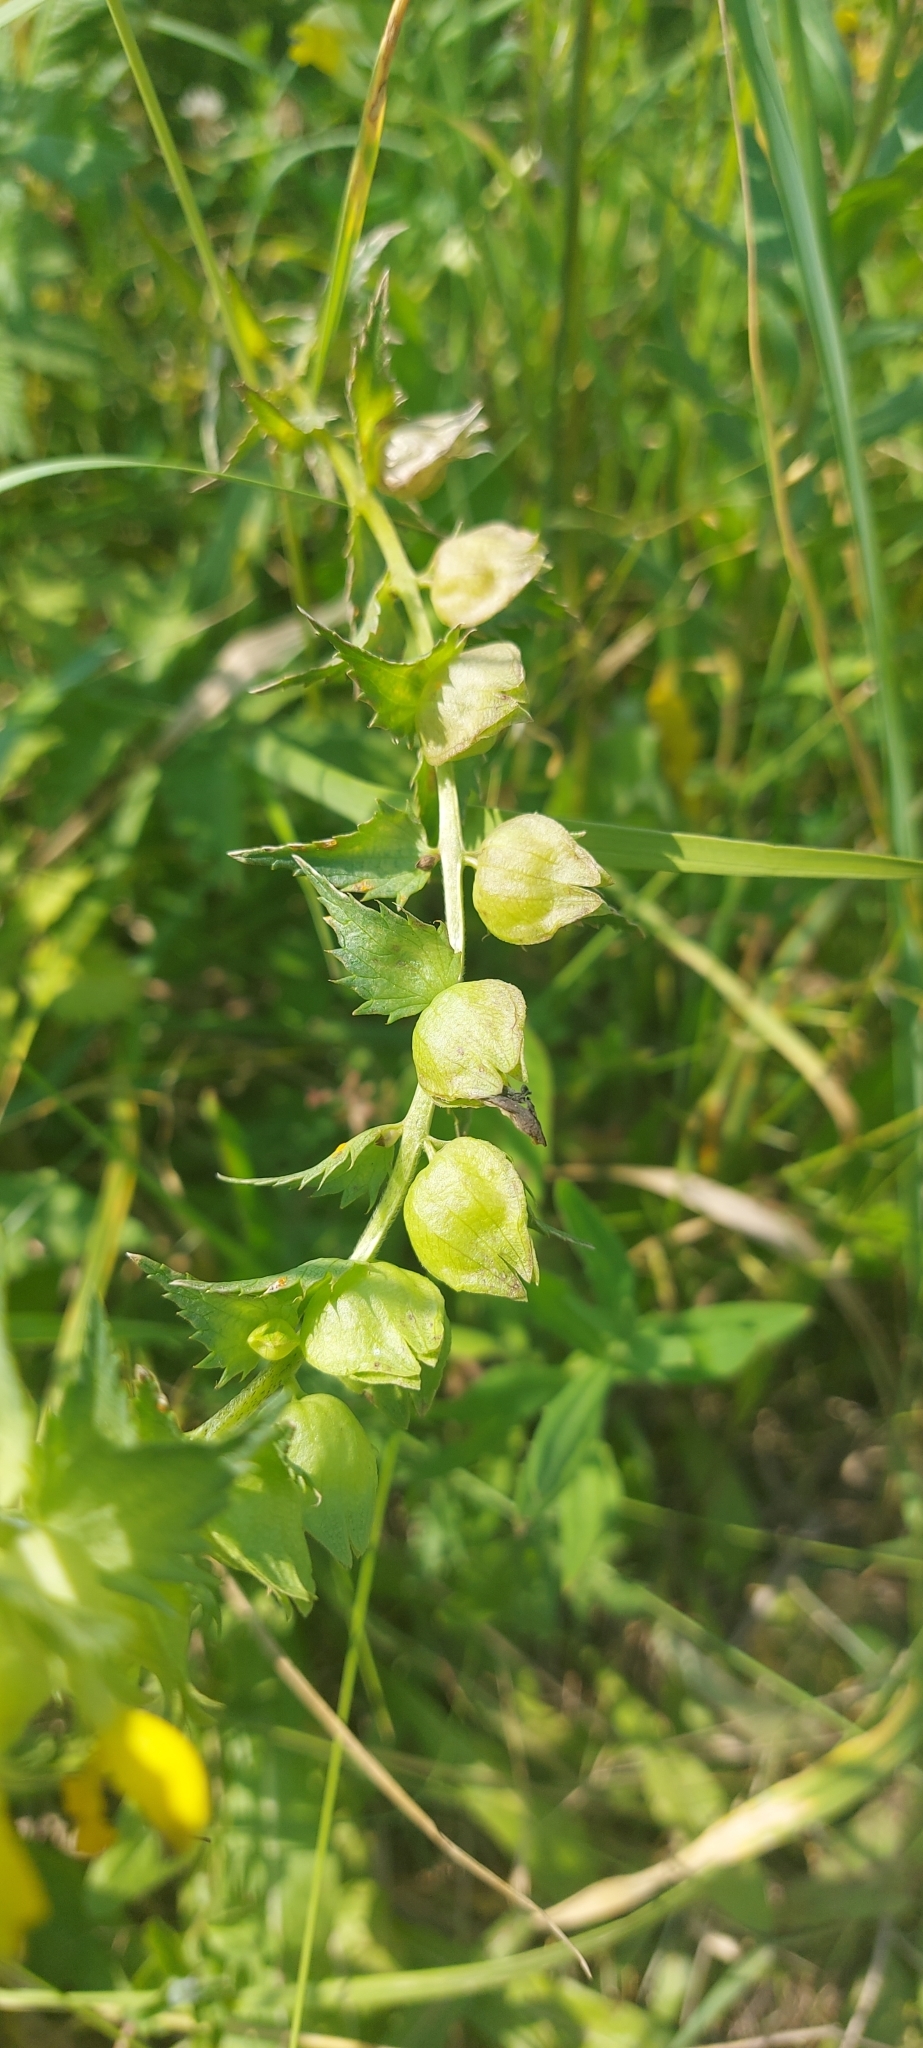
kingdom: Plantae
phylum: Tracheophyta
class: Magnoliopsida
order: Lamiales
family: Orobanchaceae
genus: Rhinanthus
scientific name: Rhinanthus minor
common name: Yellow-rattle
